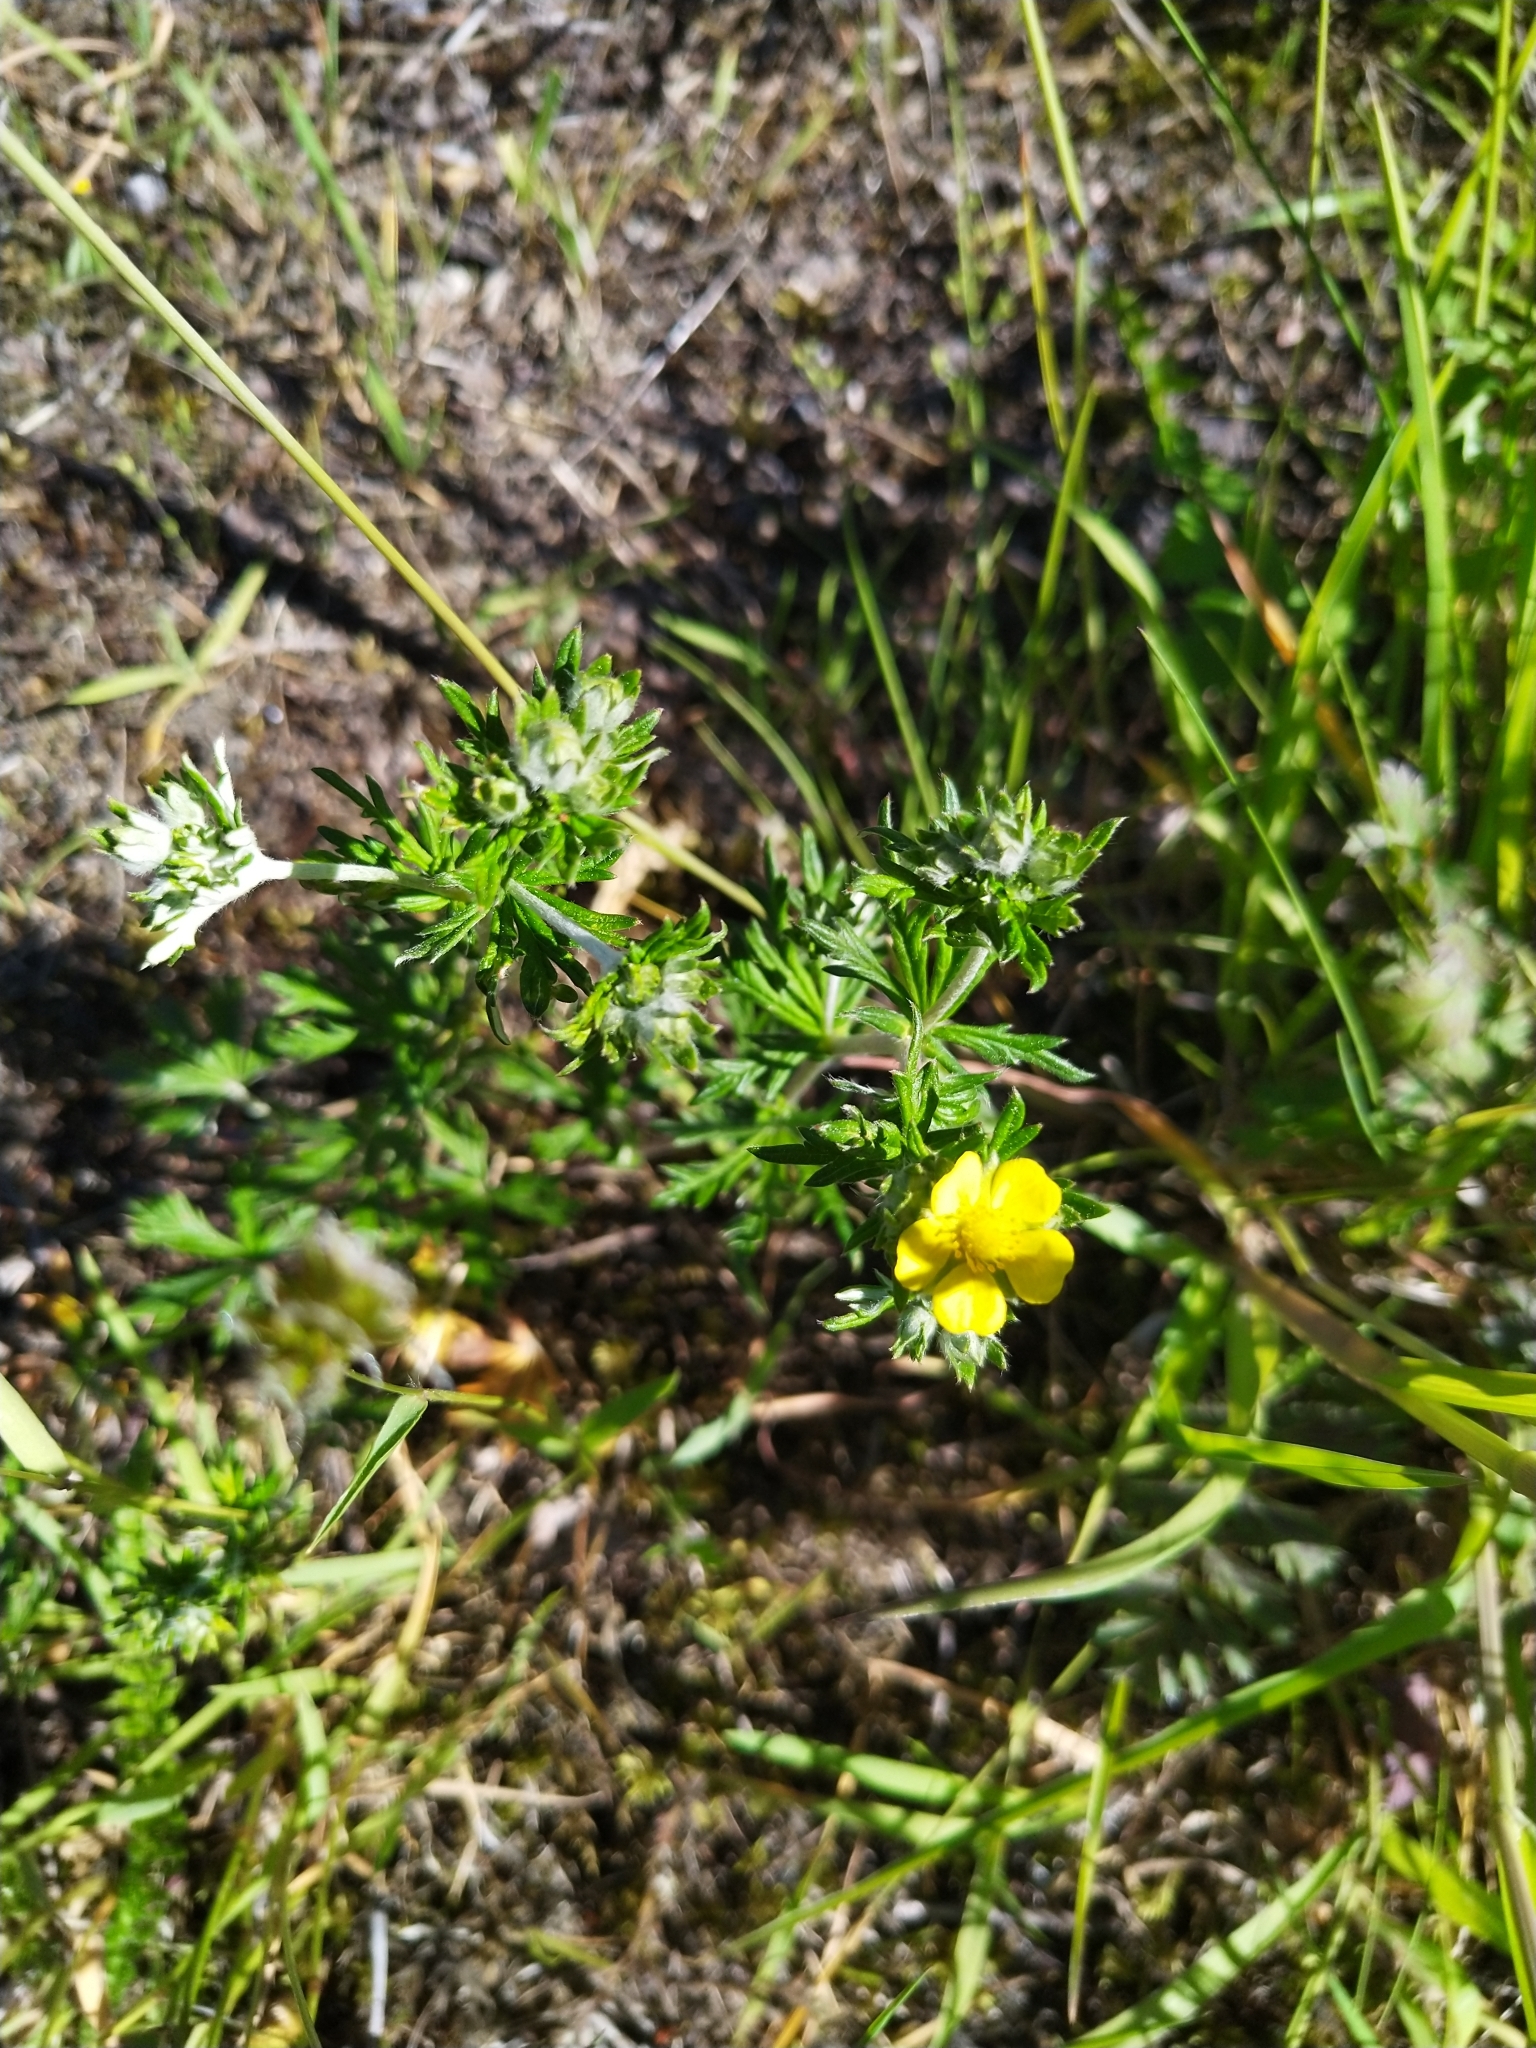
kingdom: Plantae
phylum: Tracheophyta
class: Magnoliopsida
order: Rosales
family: Rosaceae
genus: Potentilla
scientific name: Potentilla argentea
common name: Hoary cinquefoil
